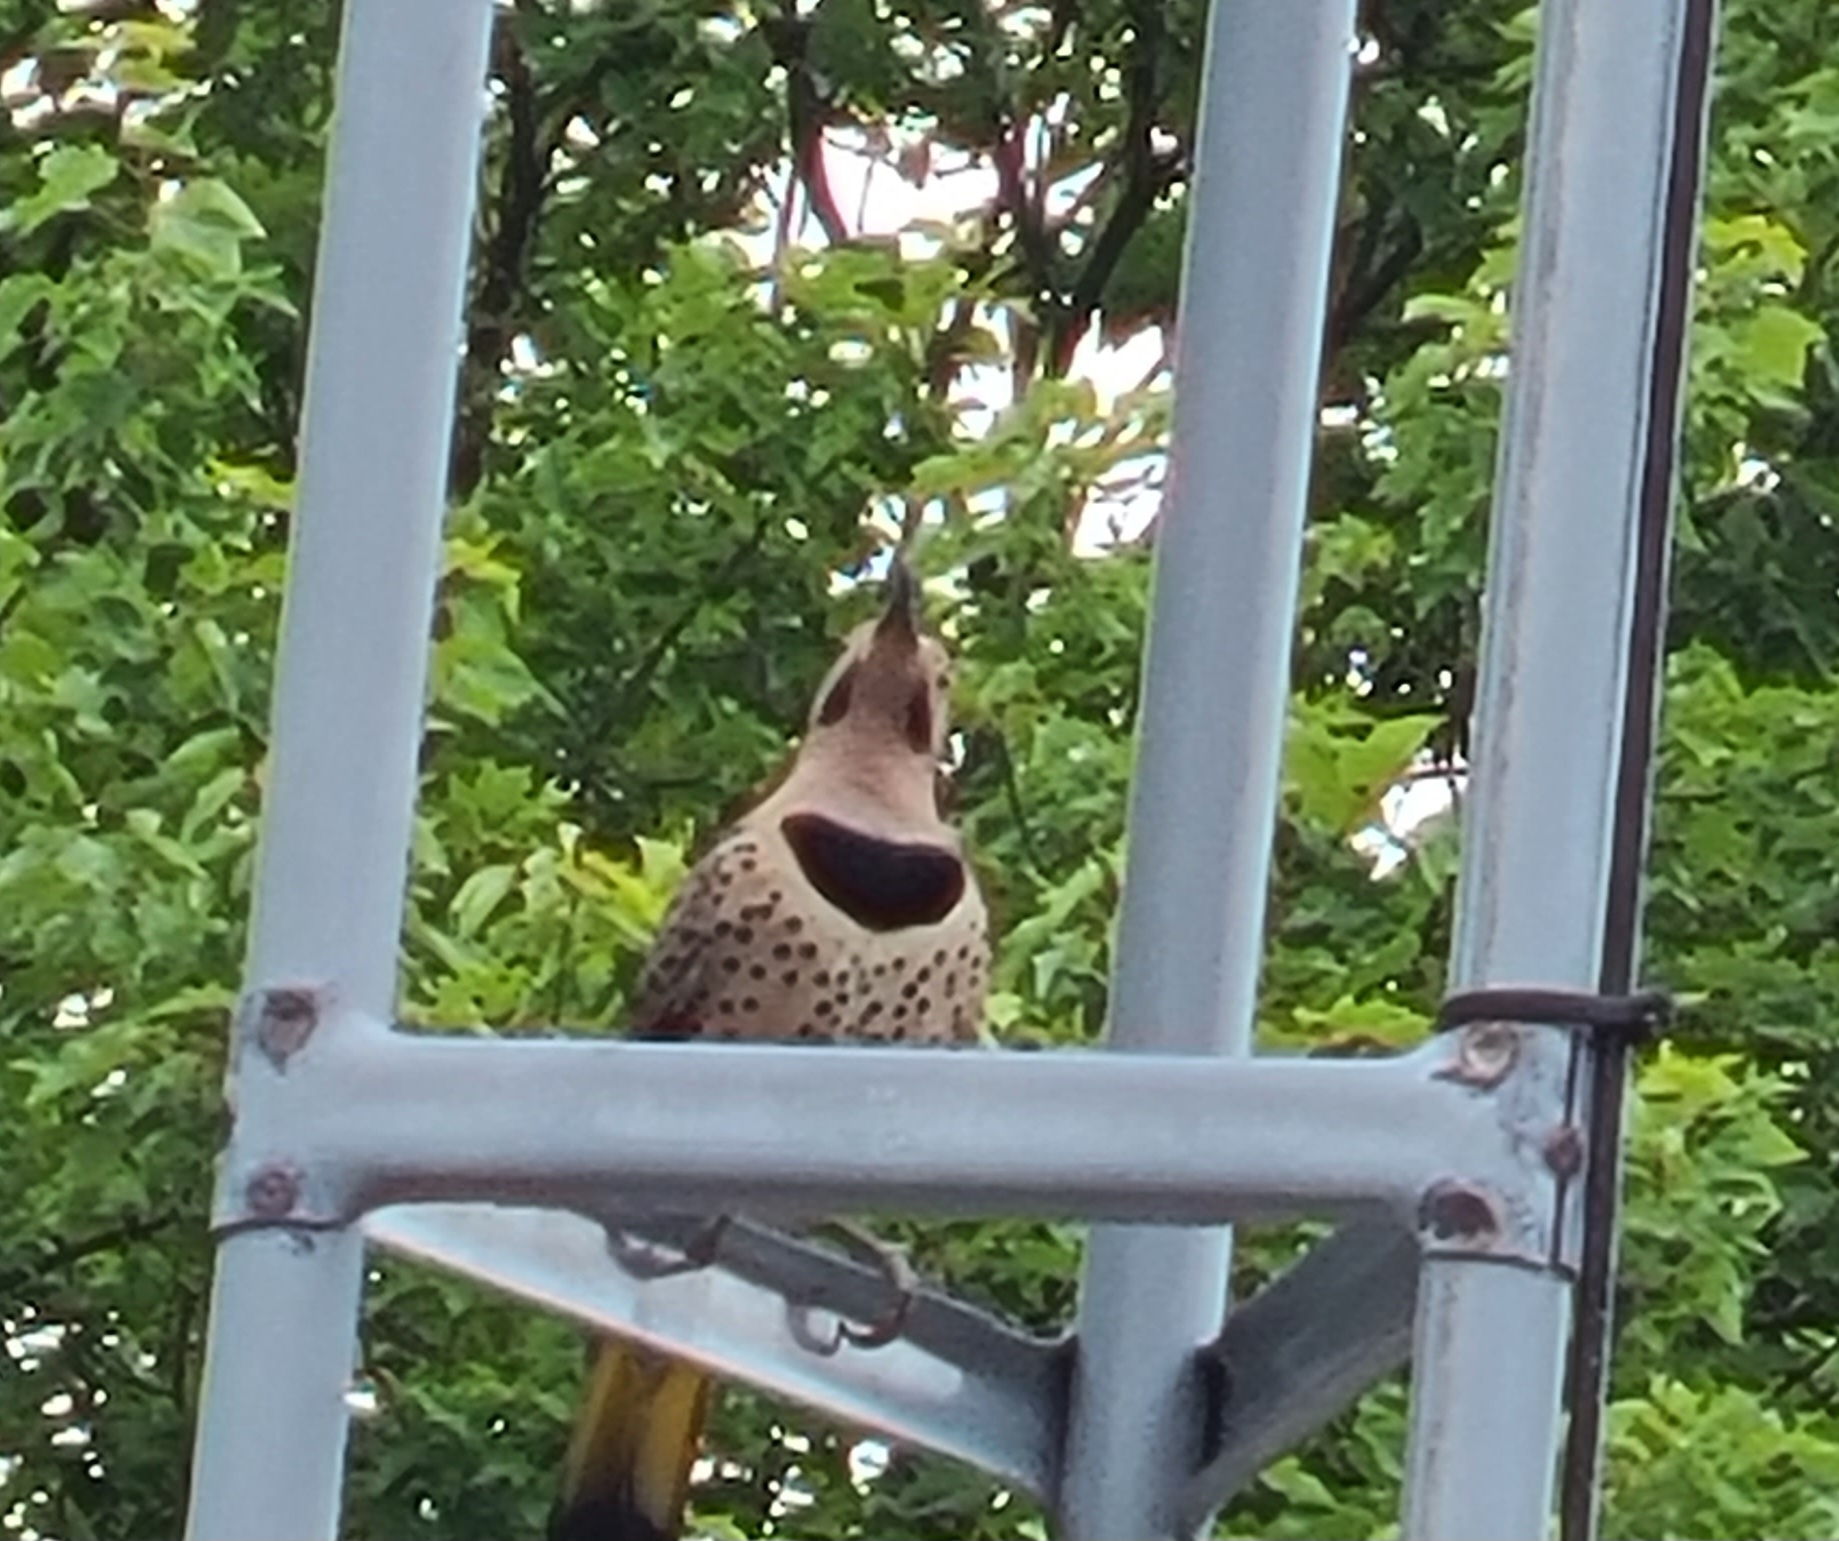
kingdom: Animalia
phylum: Chordata
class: Aves
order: Piciformes
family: Picidae
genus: Colaptes
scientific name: Colaptes auratus
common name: Northern flicker
